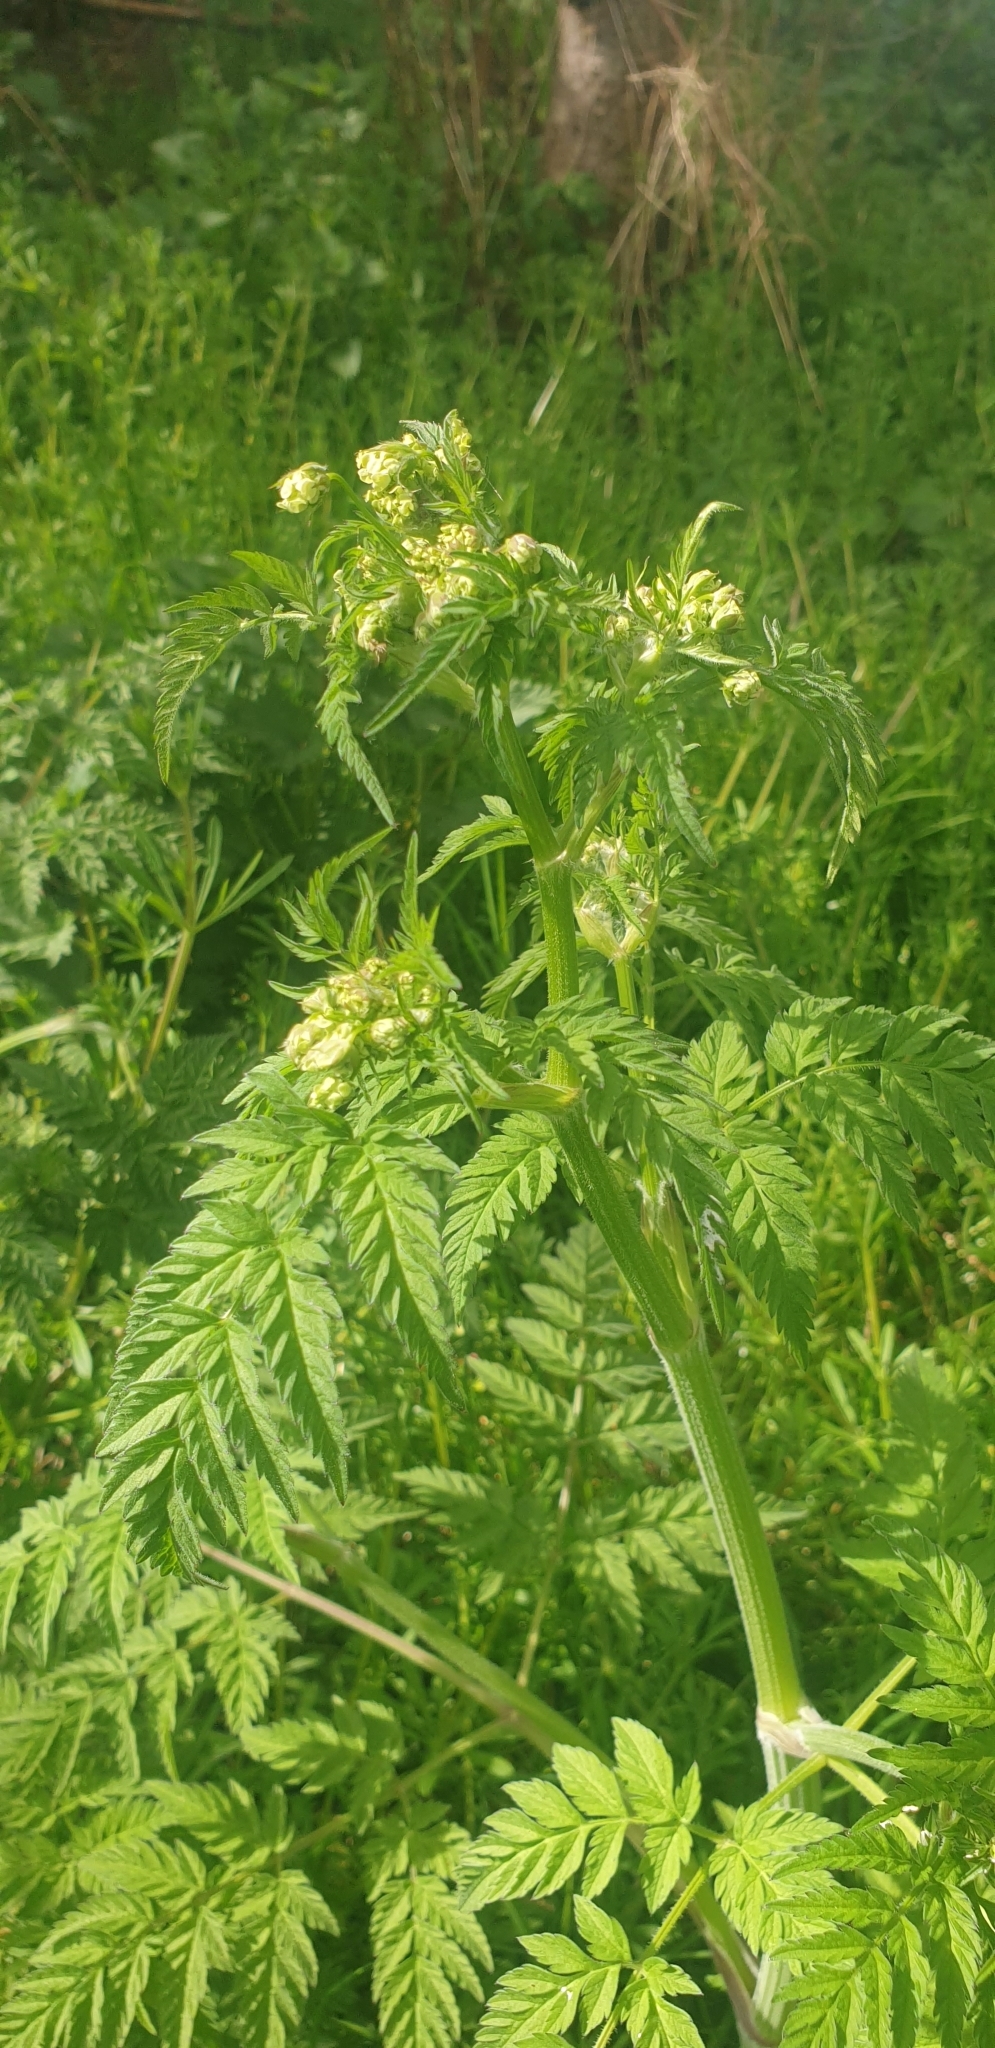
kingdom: Plantae
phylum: Tracheophyta
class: Magnoliopsida
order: Apiales
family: Apiaceae
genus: Anthriscus
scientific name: Anthriscus sylvestris
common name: Cow parsley
